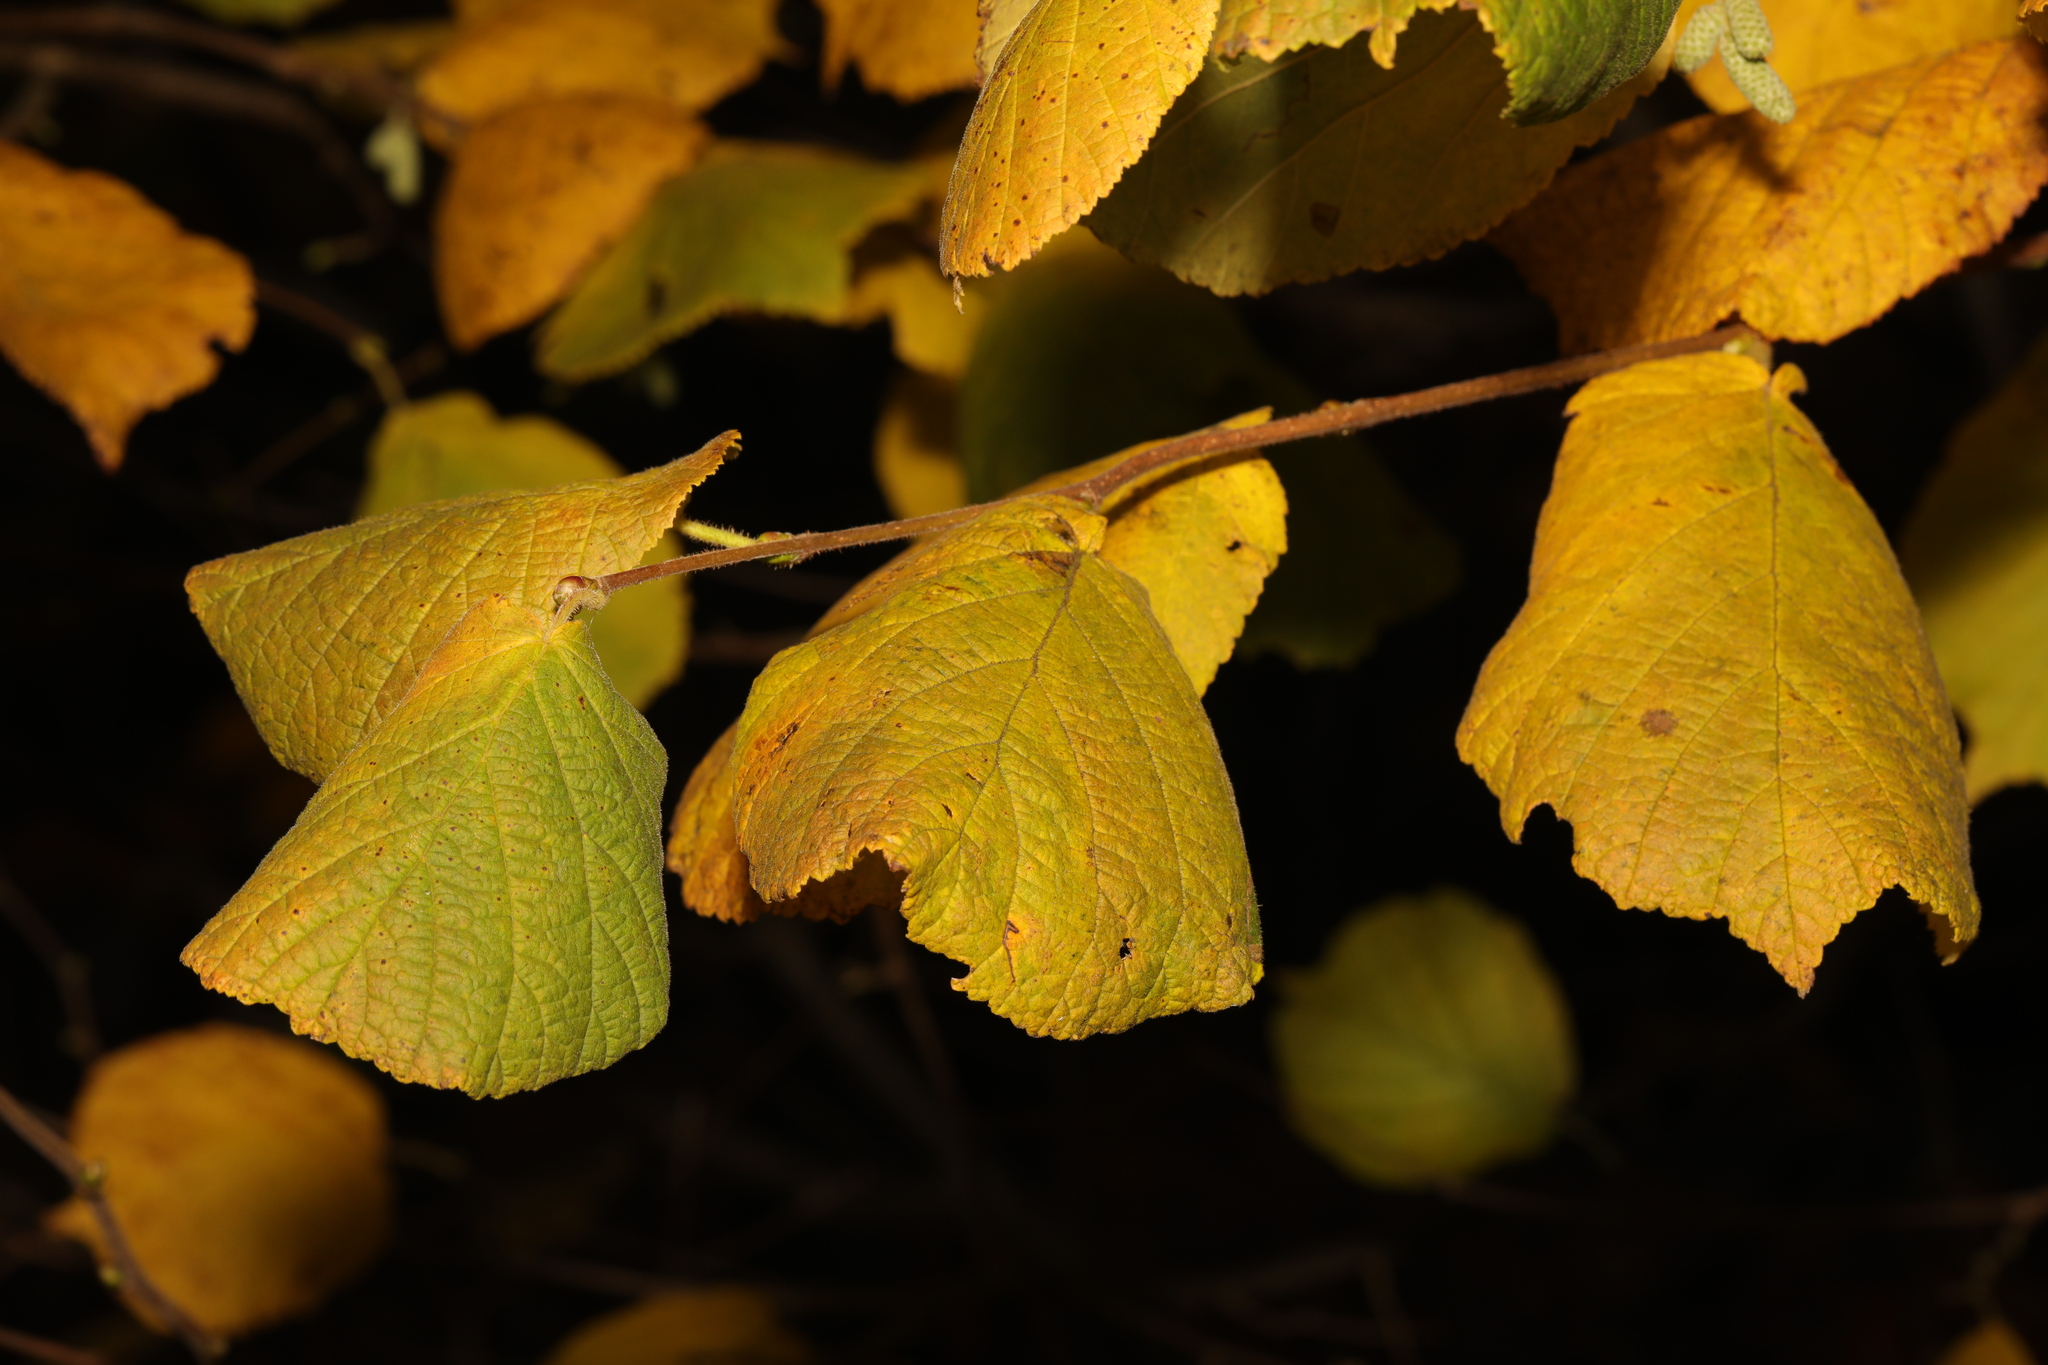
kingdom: Plantae
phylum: Tracheophyta
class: Magnoliopsida
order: Fagales
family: Betulaceae
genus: Corylus
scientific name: Corylus avellana
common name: European hazel
